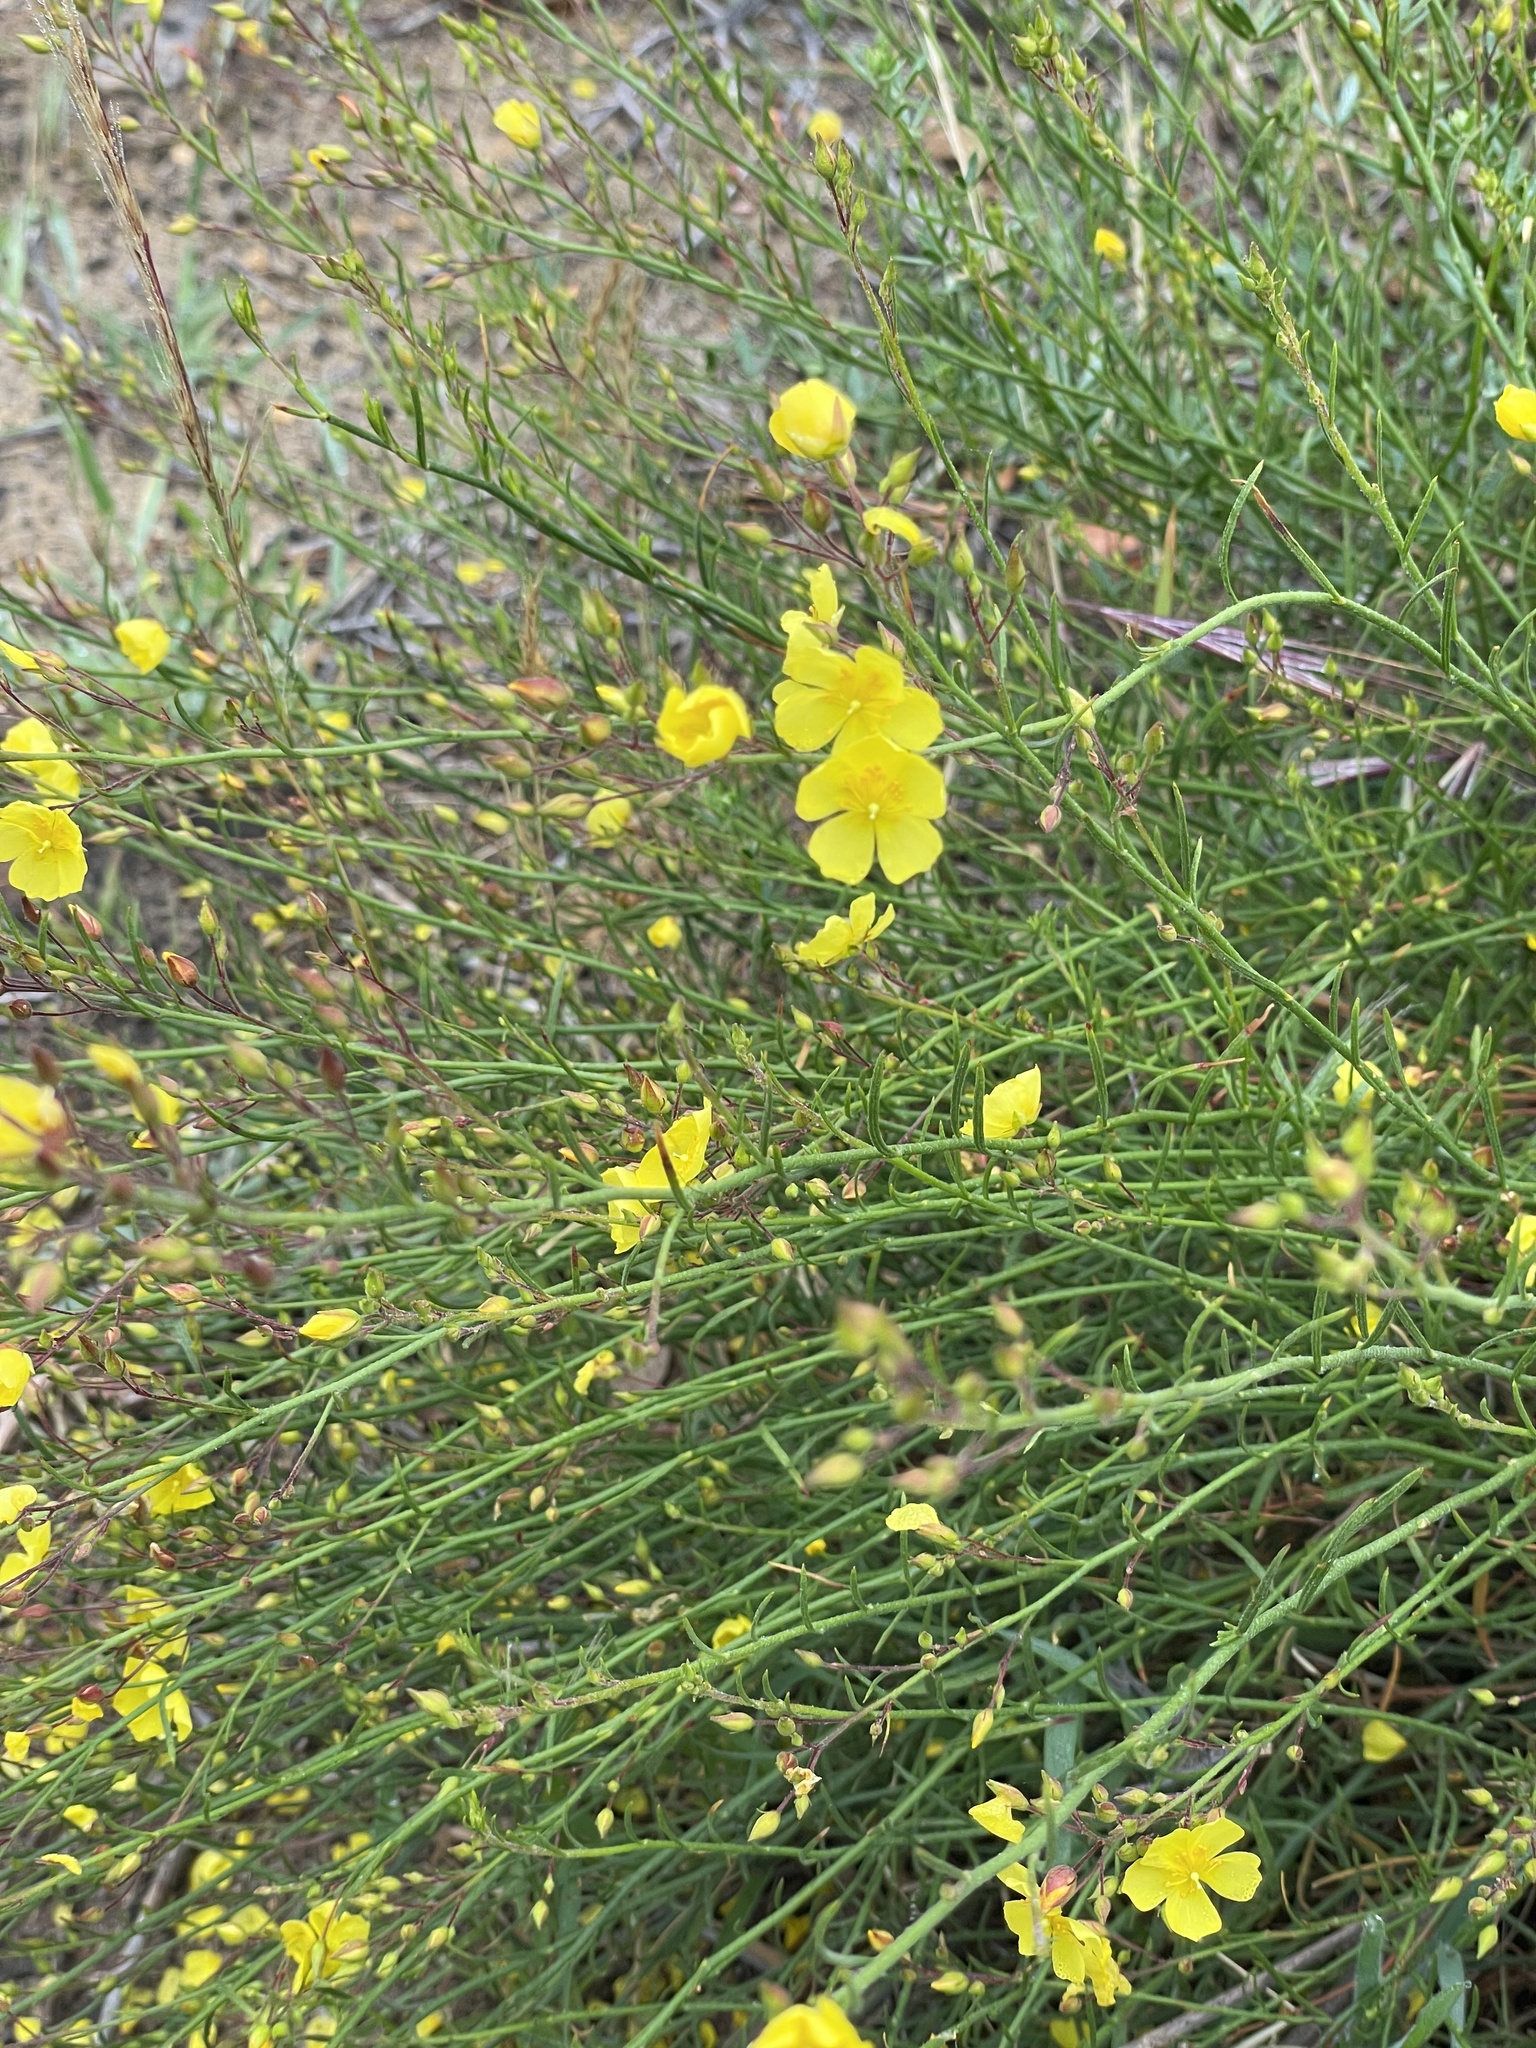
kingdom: Plantae
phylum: Tracheophyta
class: Magnoliopsida
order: Malvales
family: Cistaceae
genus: Crocanthemum
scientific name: Crocanthemum scoparium
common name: Broom-rose
